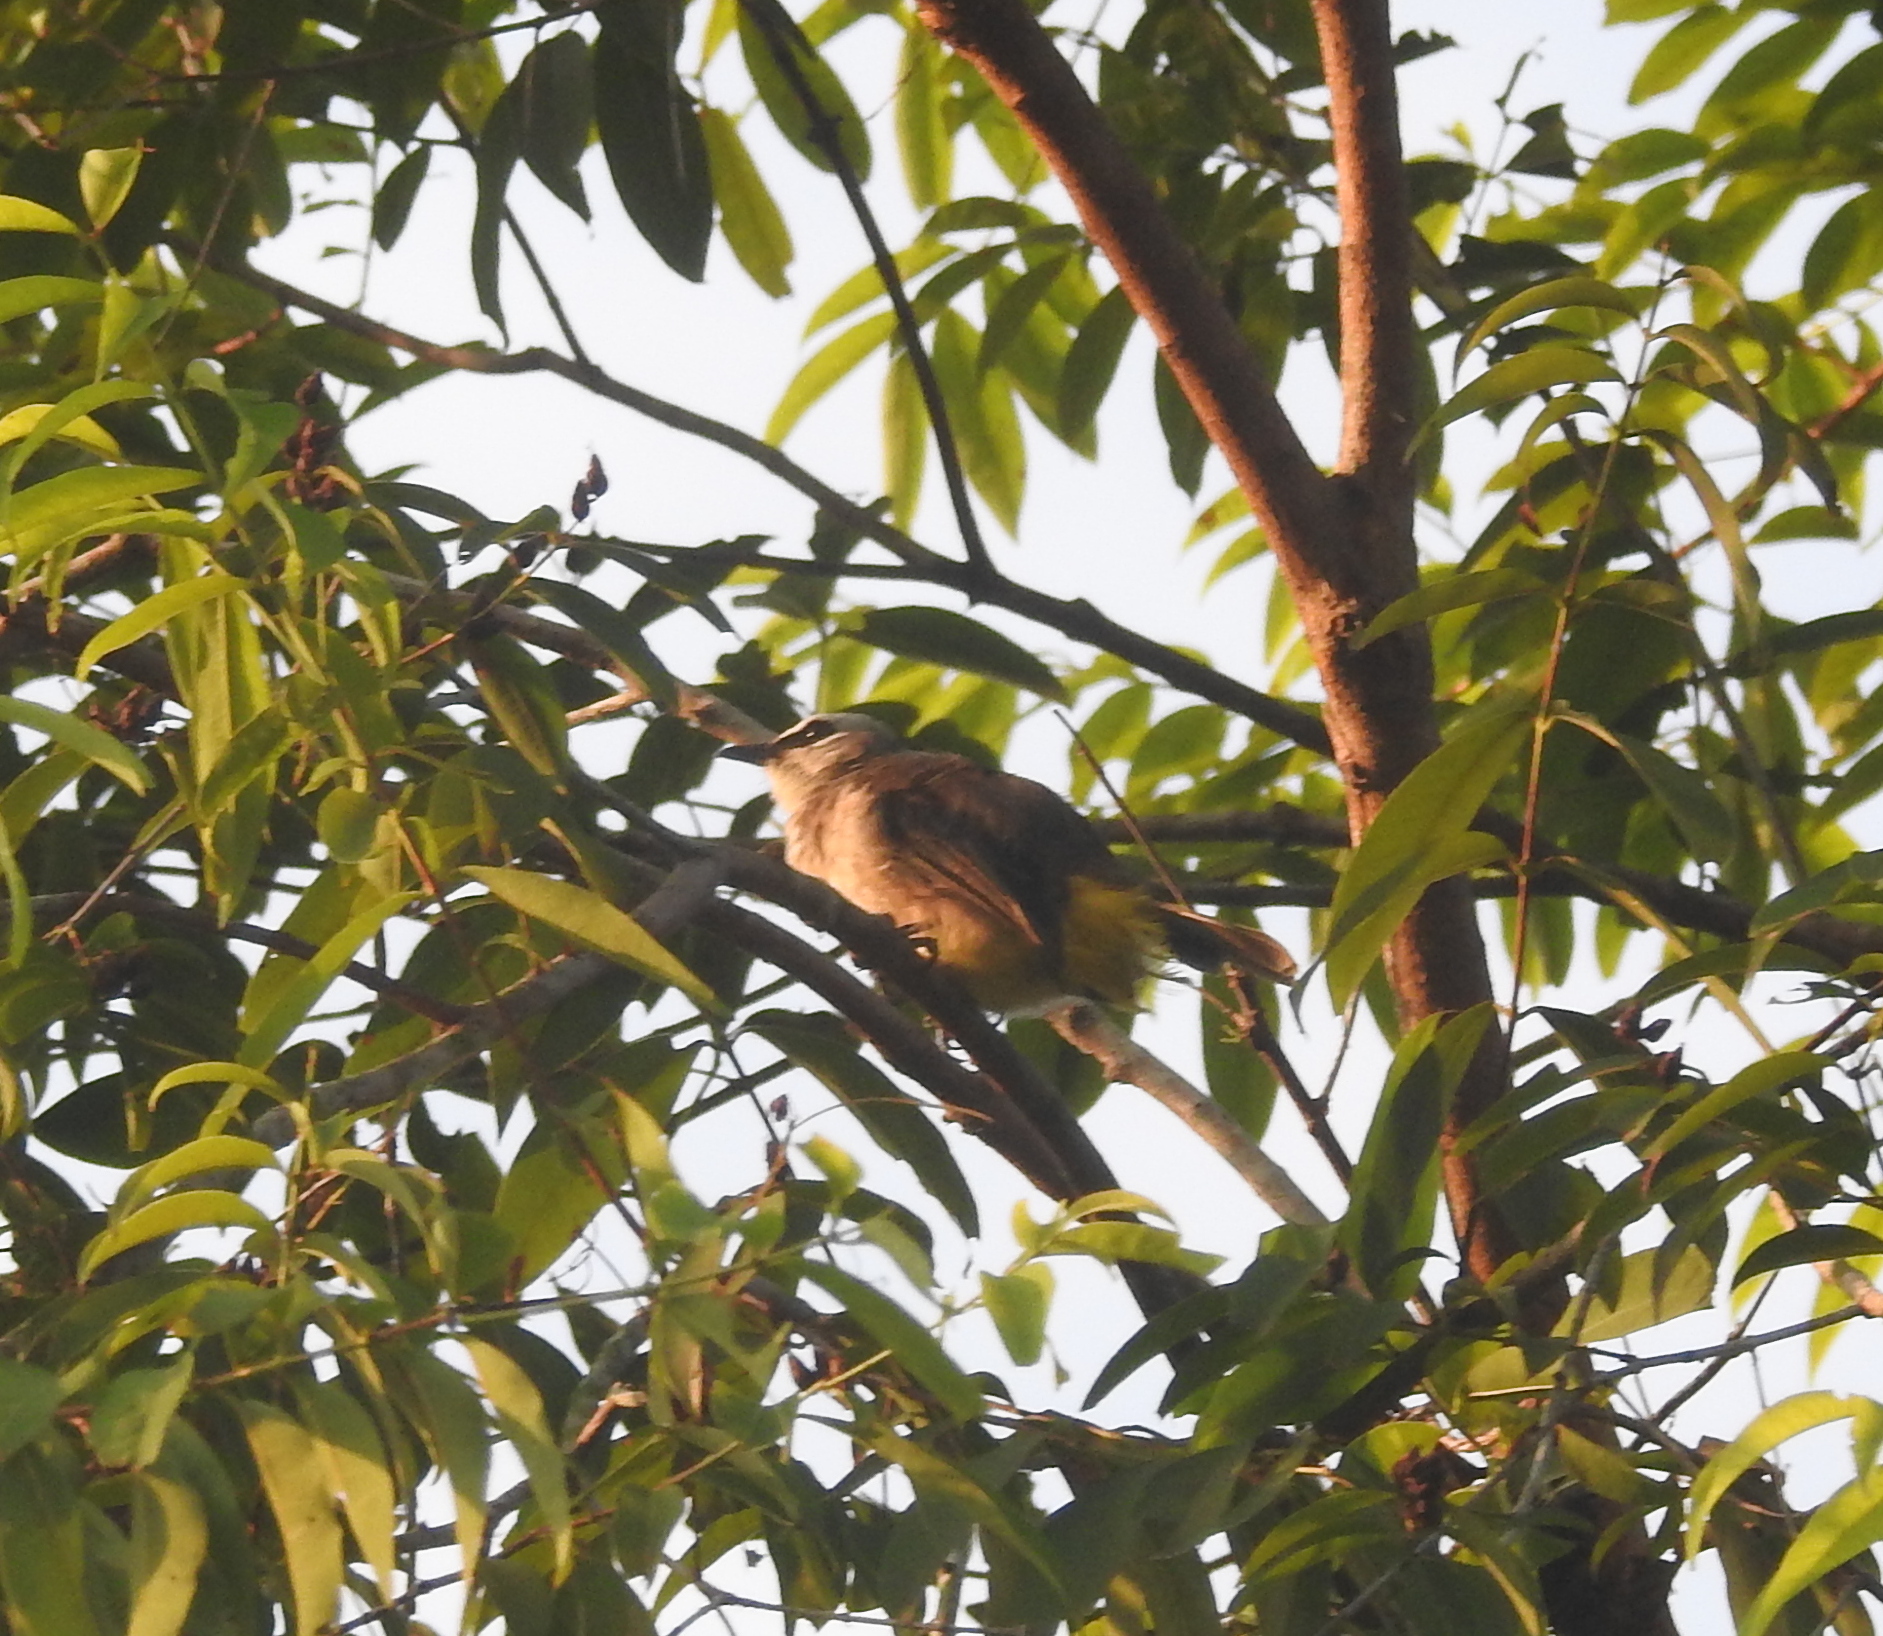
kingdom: Animalia
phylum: Chordata
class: Aves
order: Passeriformes
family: Pycnonotidae
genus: Pycnonotus
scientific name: Pycnonotus goiavier
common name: Yellow-vented bulbul
